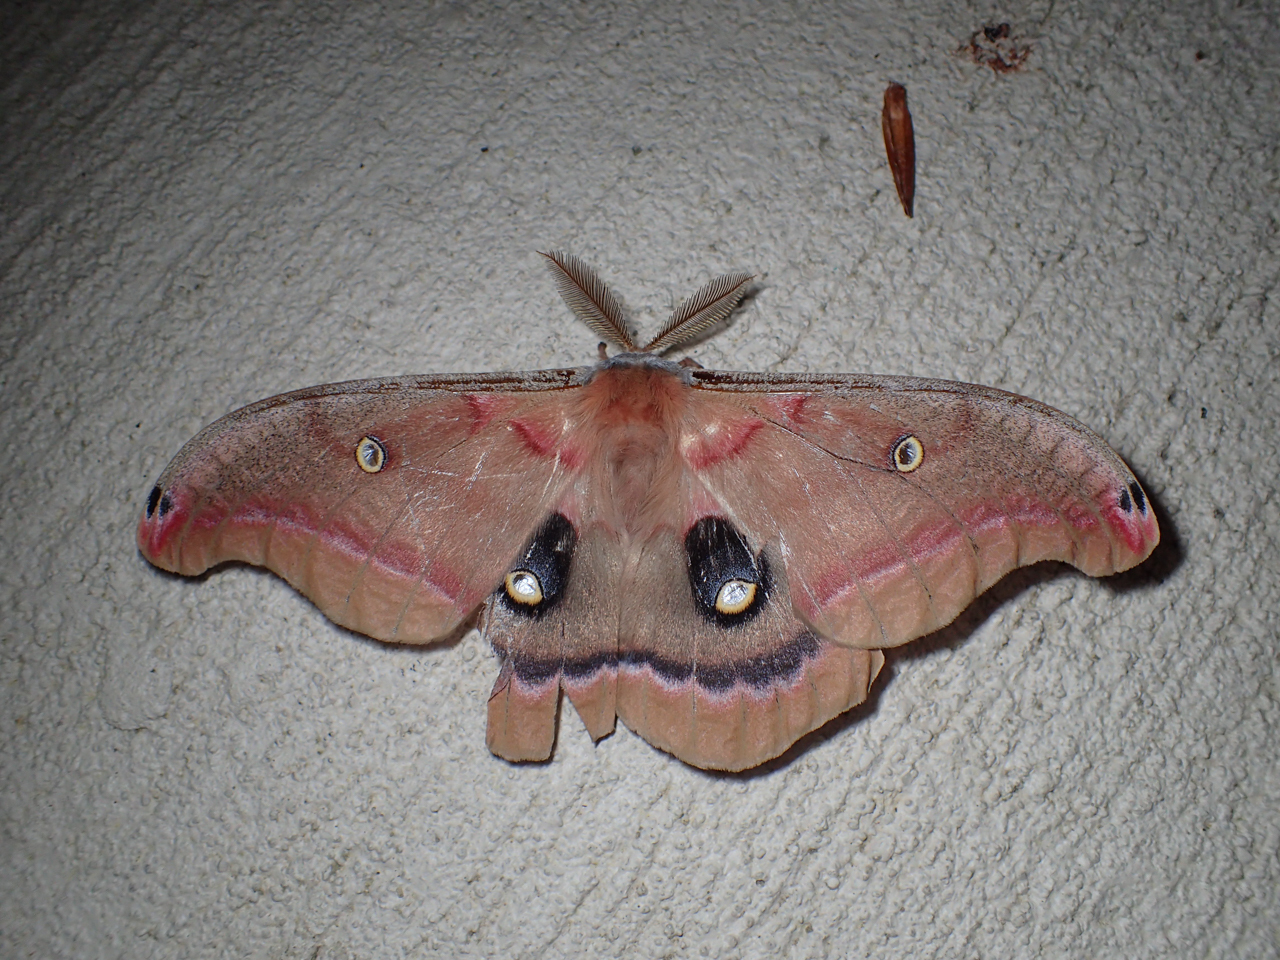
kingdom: Animalia
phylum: Arthropoda
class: Insecta
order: Lepidoptera
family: Saturniidae
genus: Antheraea
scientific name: Antheraea polyphemus
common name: Polyphemus moth
